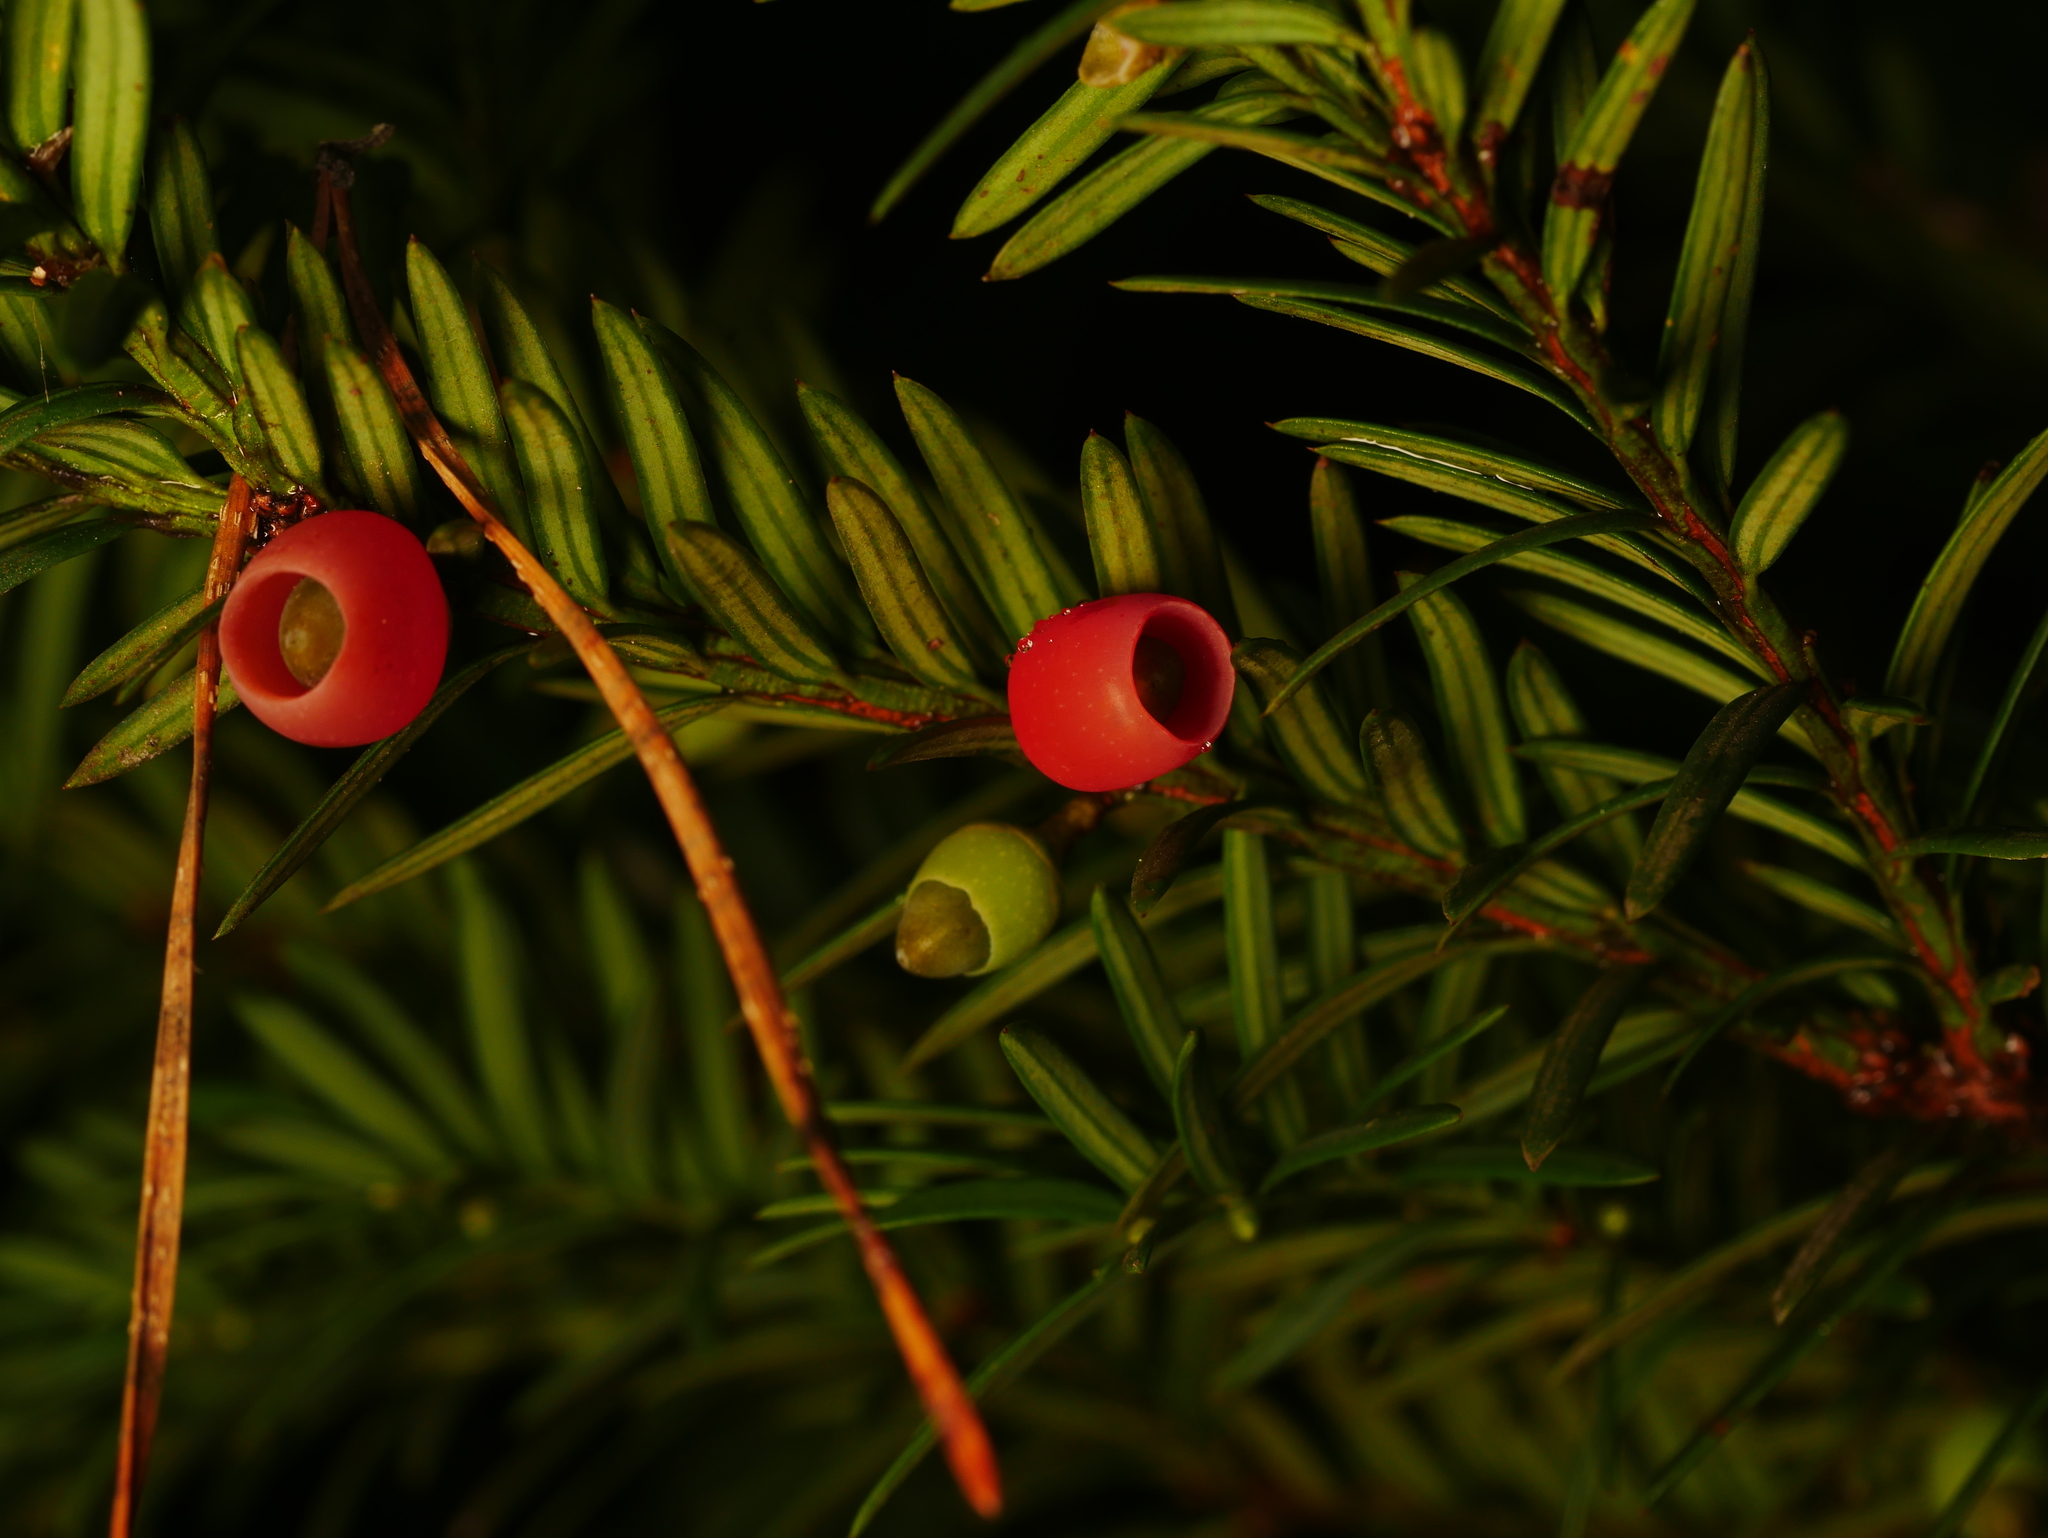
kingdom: Plantae
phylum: Tracheophyta
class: Pinopsida
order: Pinales
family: Taxaceae
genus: Taxus
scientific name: Taxus baccata
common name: Yew
